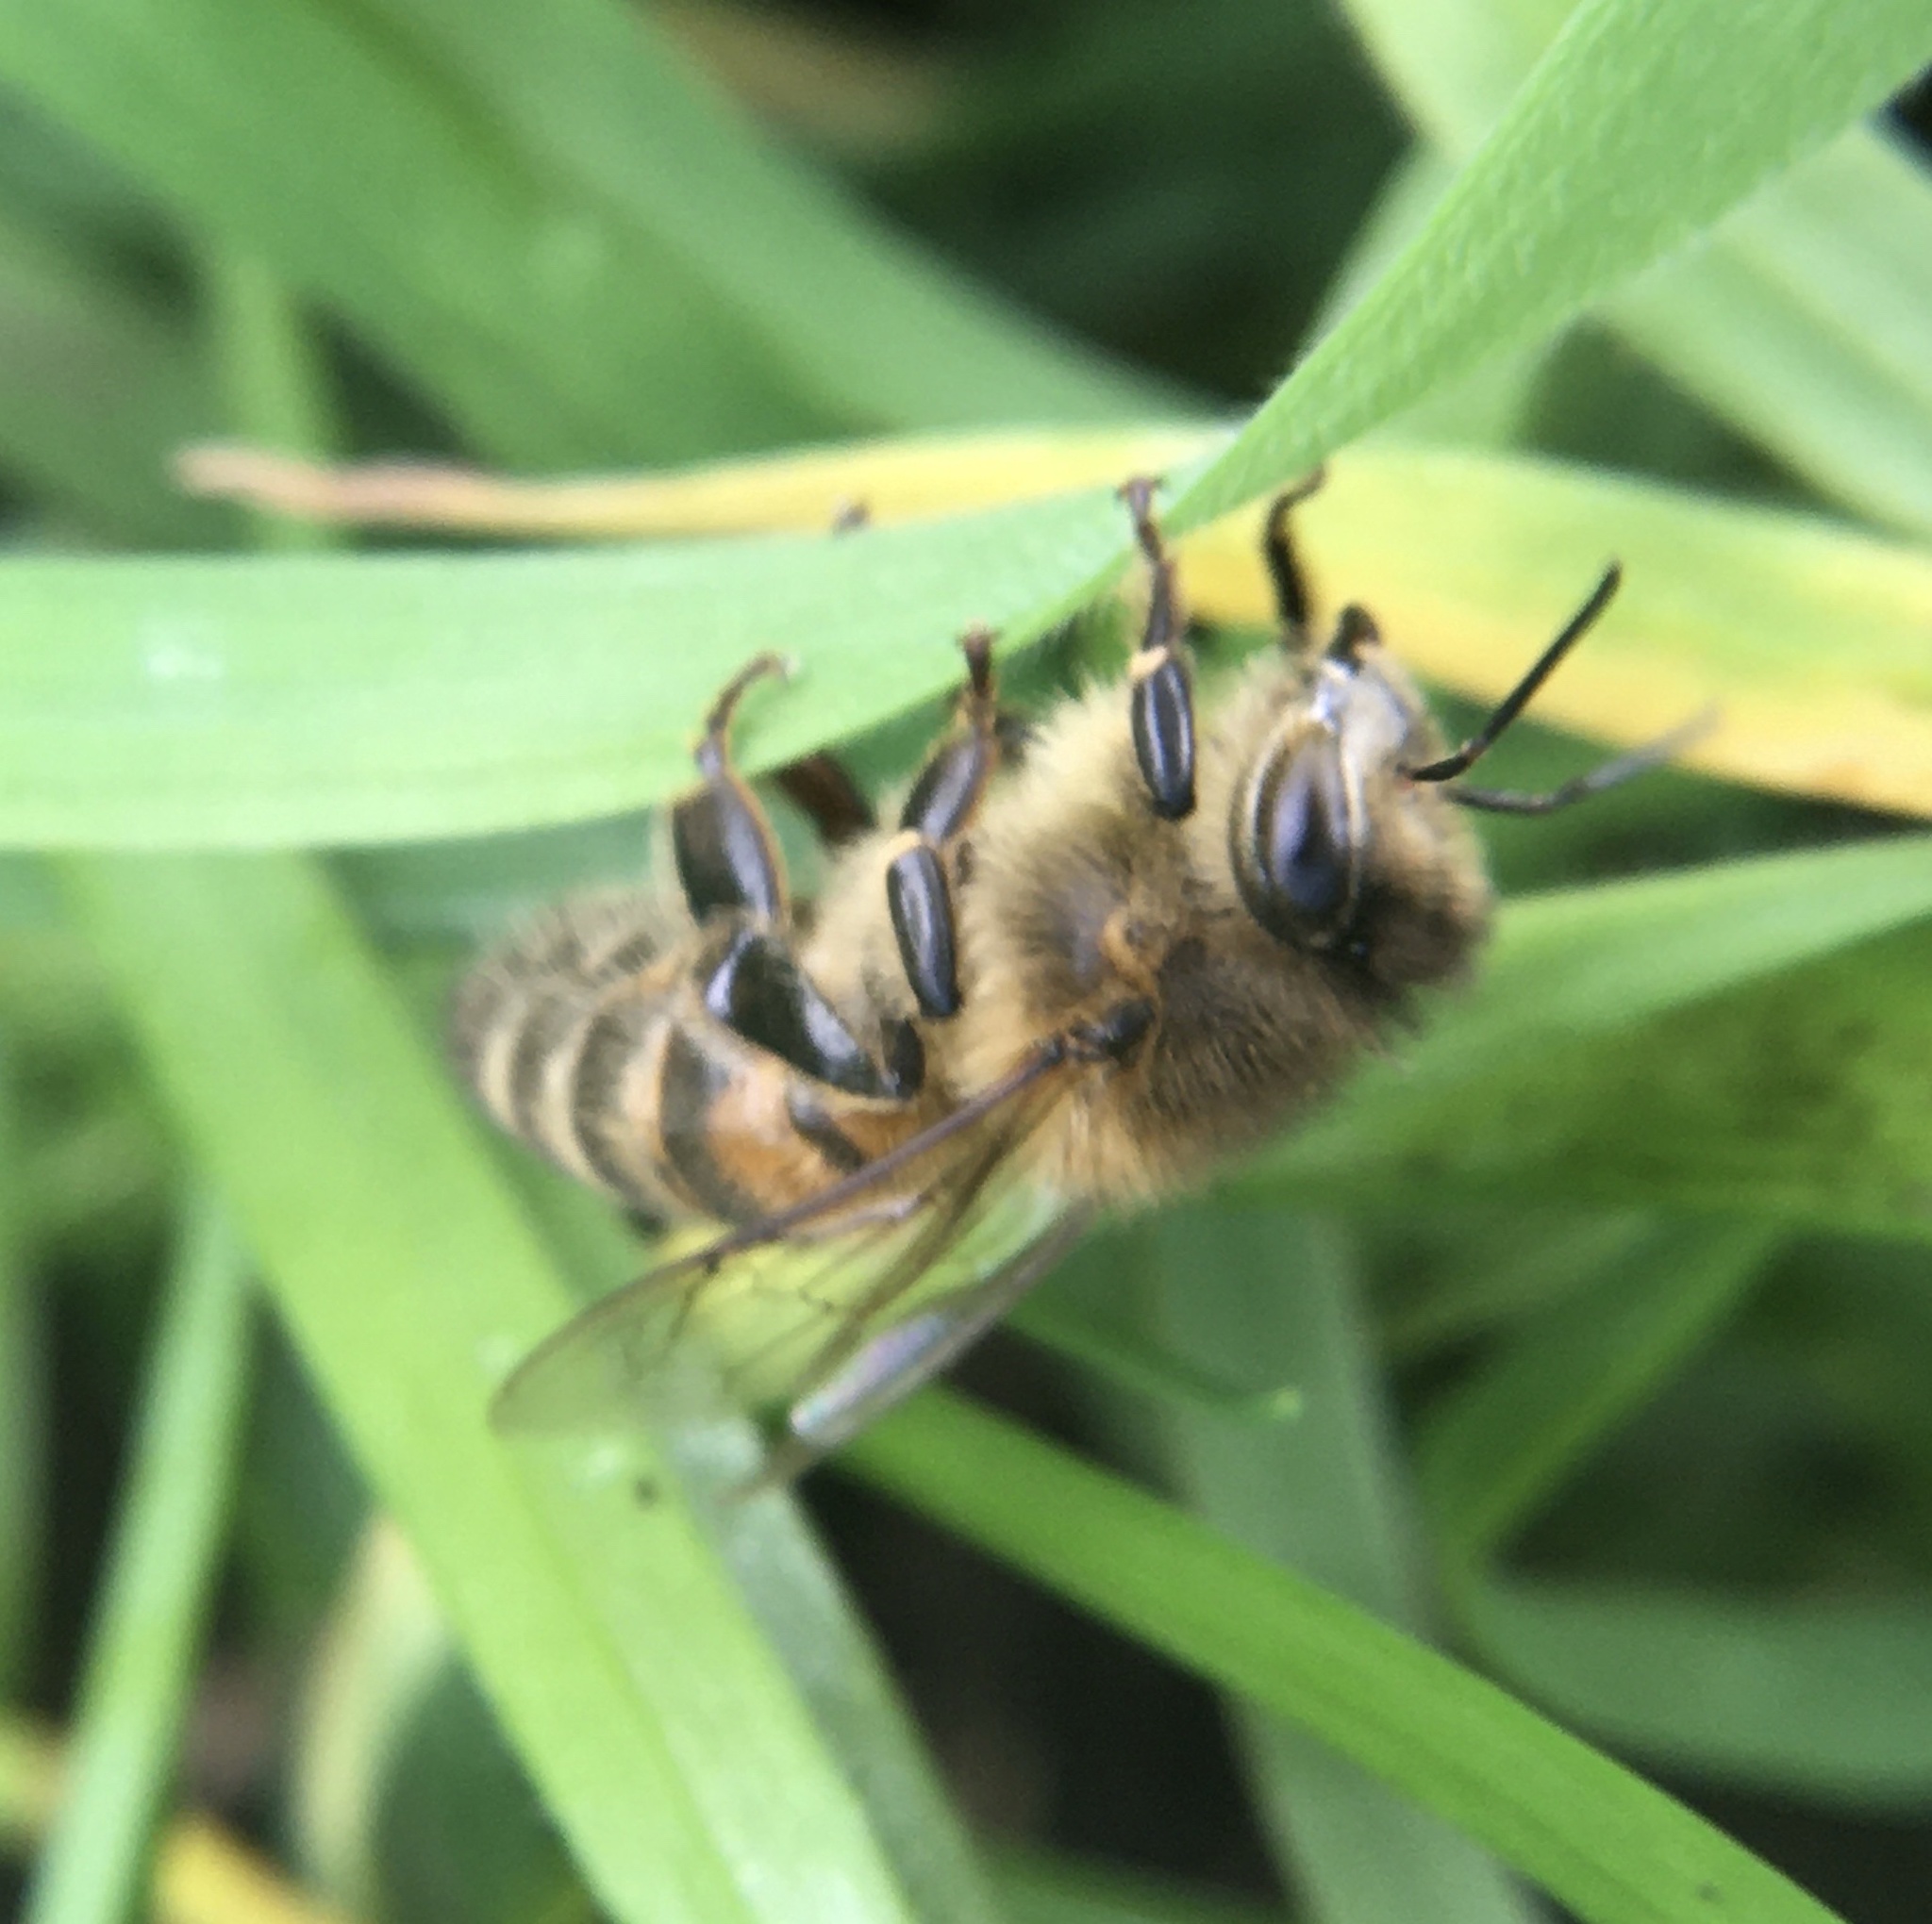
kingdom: Animalia
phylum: Arthropoda
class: Insecta
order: Hymenoptera
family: Apidae
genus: Apis
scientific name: Apis mellifera
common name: Honey bee
